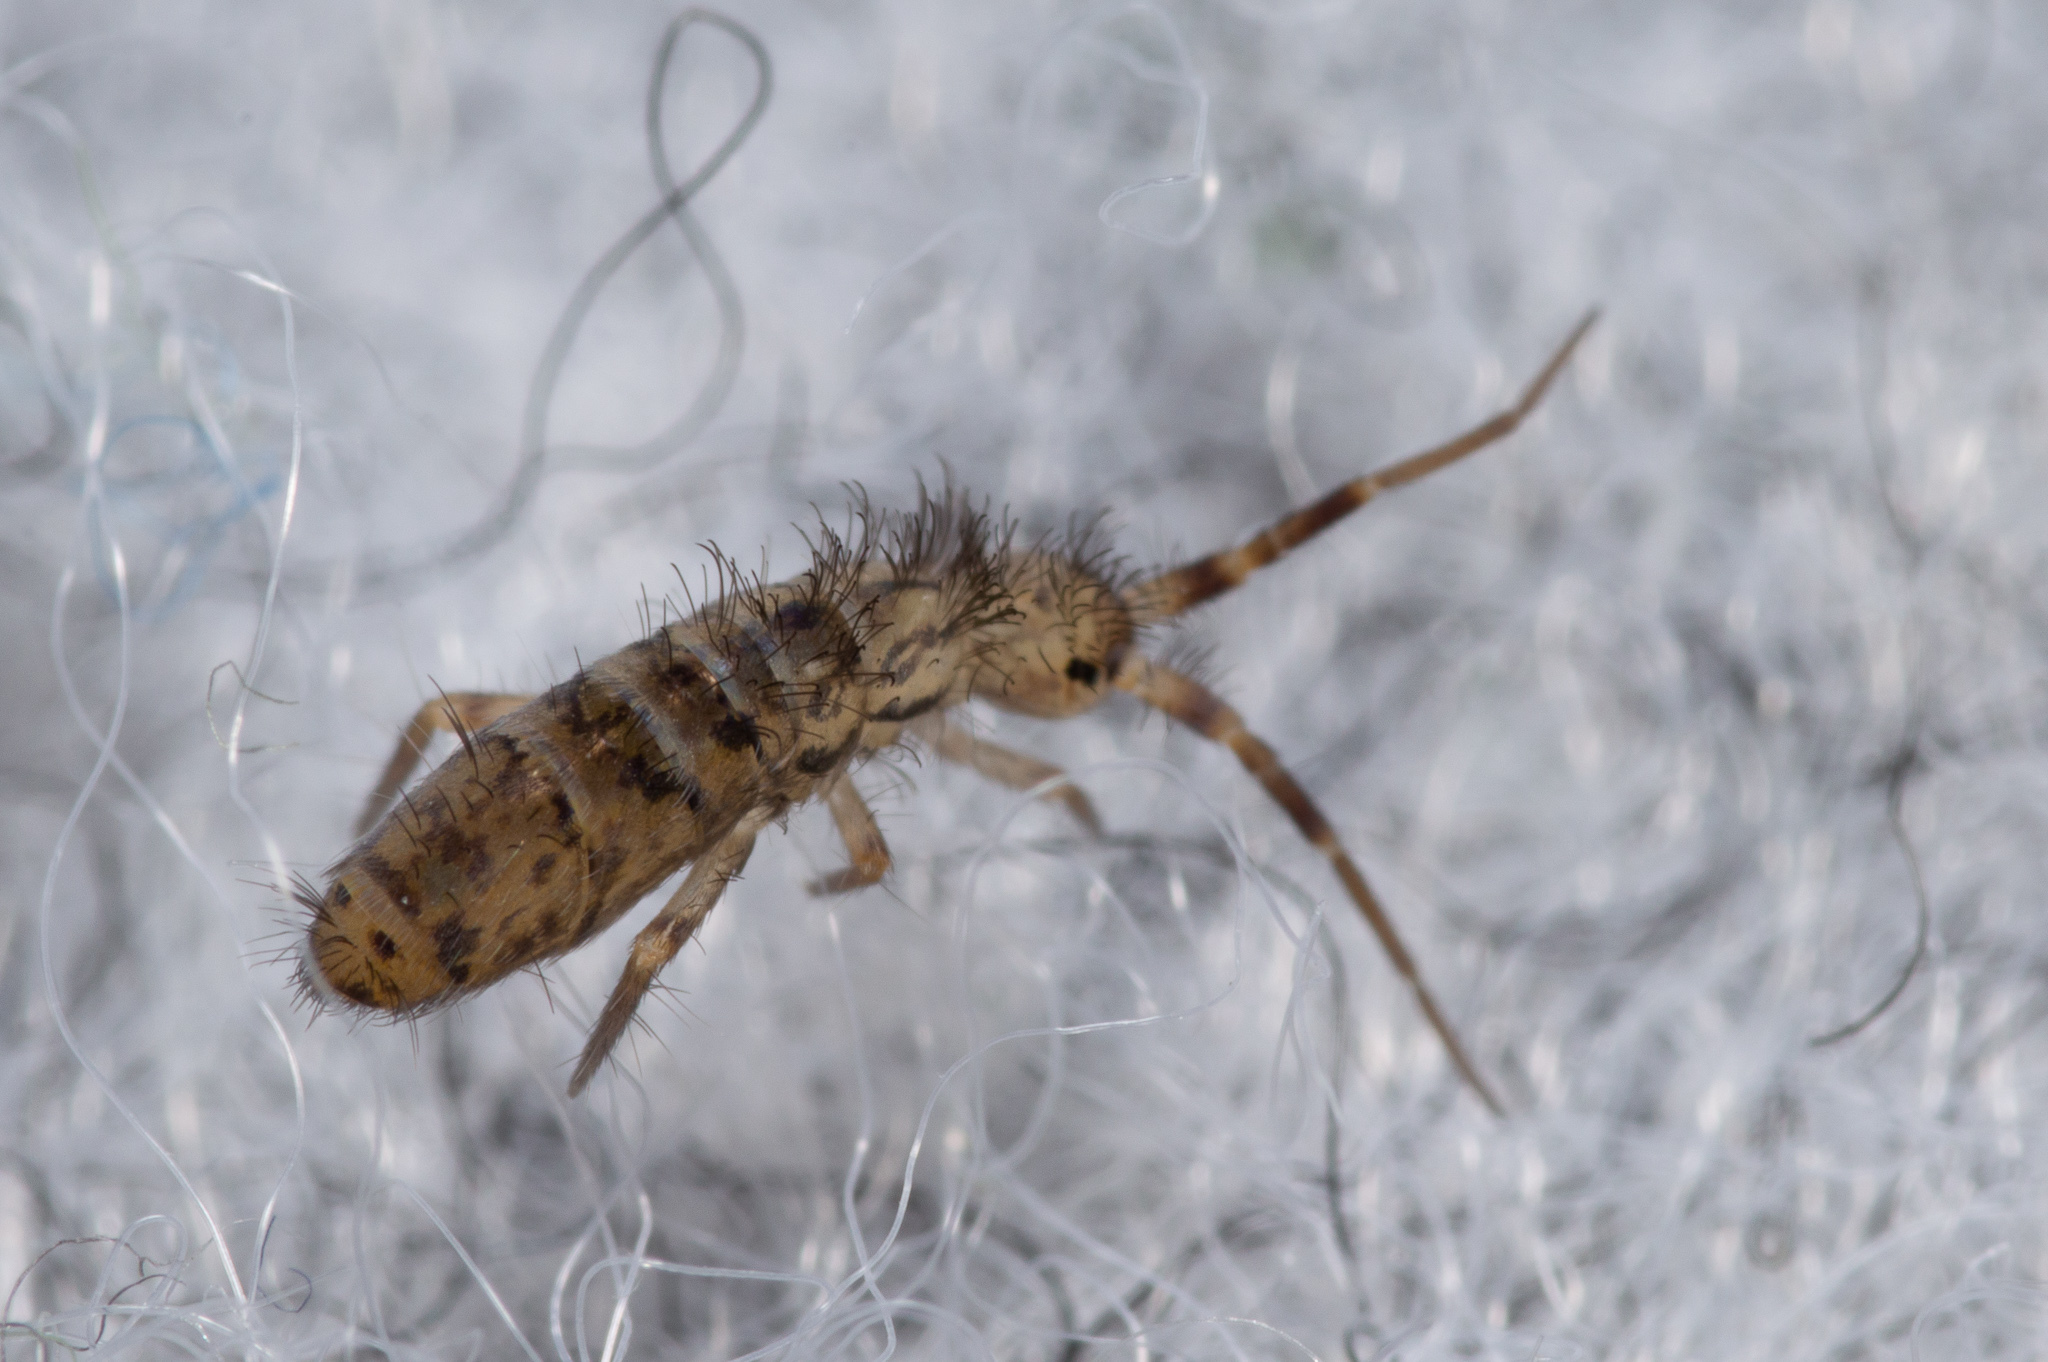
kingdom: Animalia
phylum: Arthropoda
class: Collembola
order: Entomobryomorpha
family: Orchesellidae
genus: Orchesella
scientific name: Orchesella villosa
